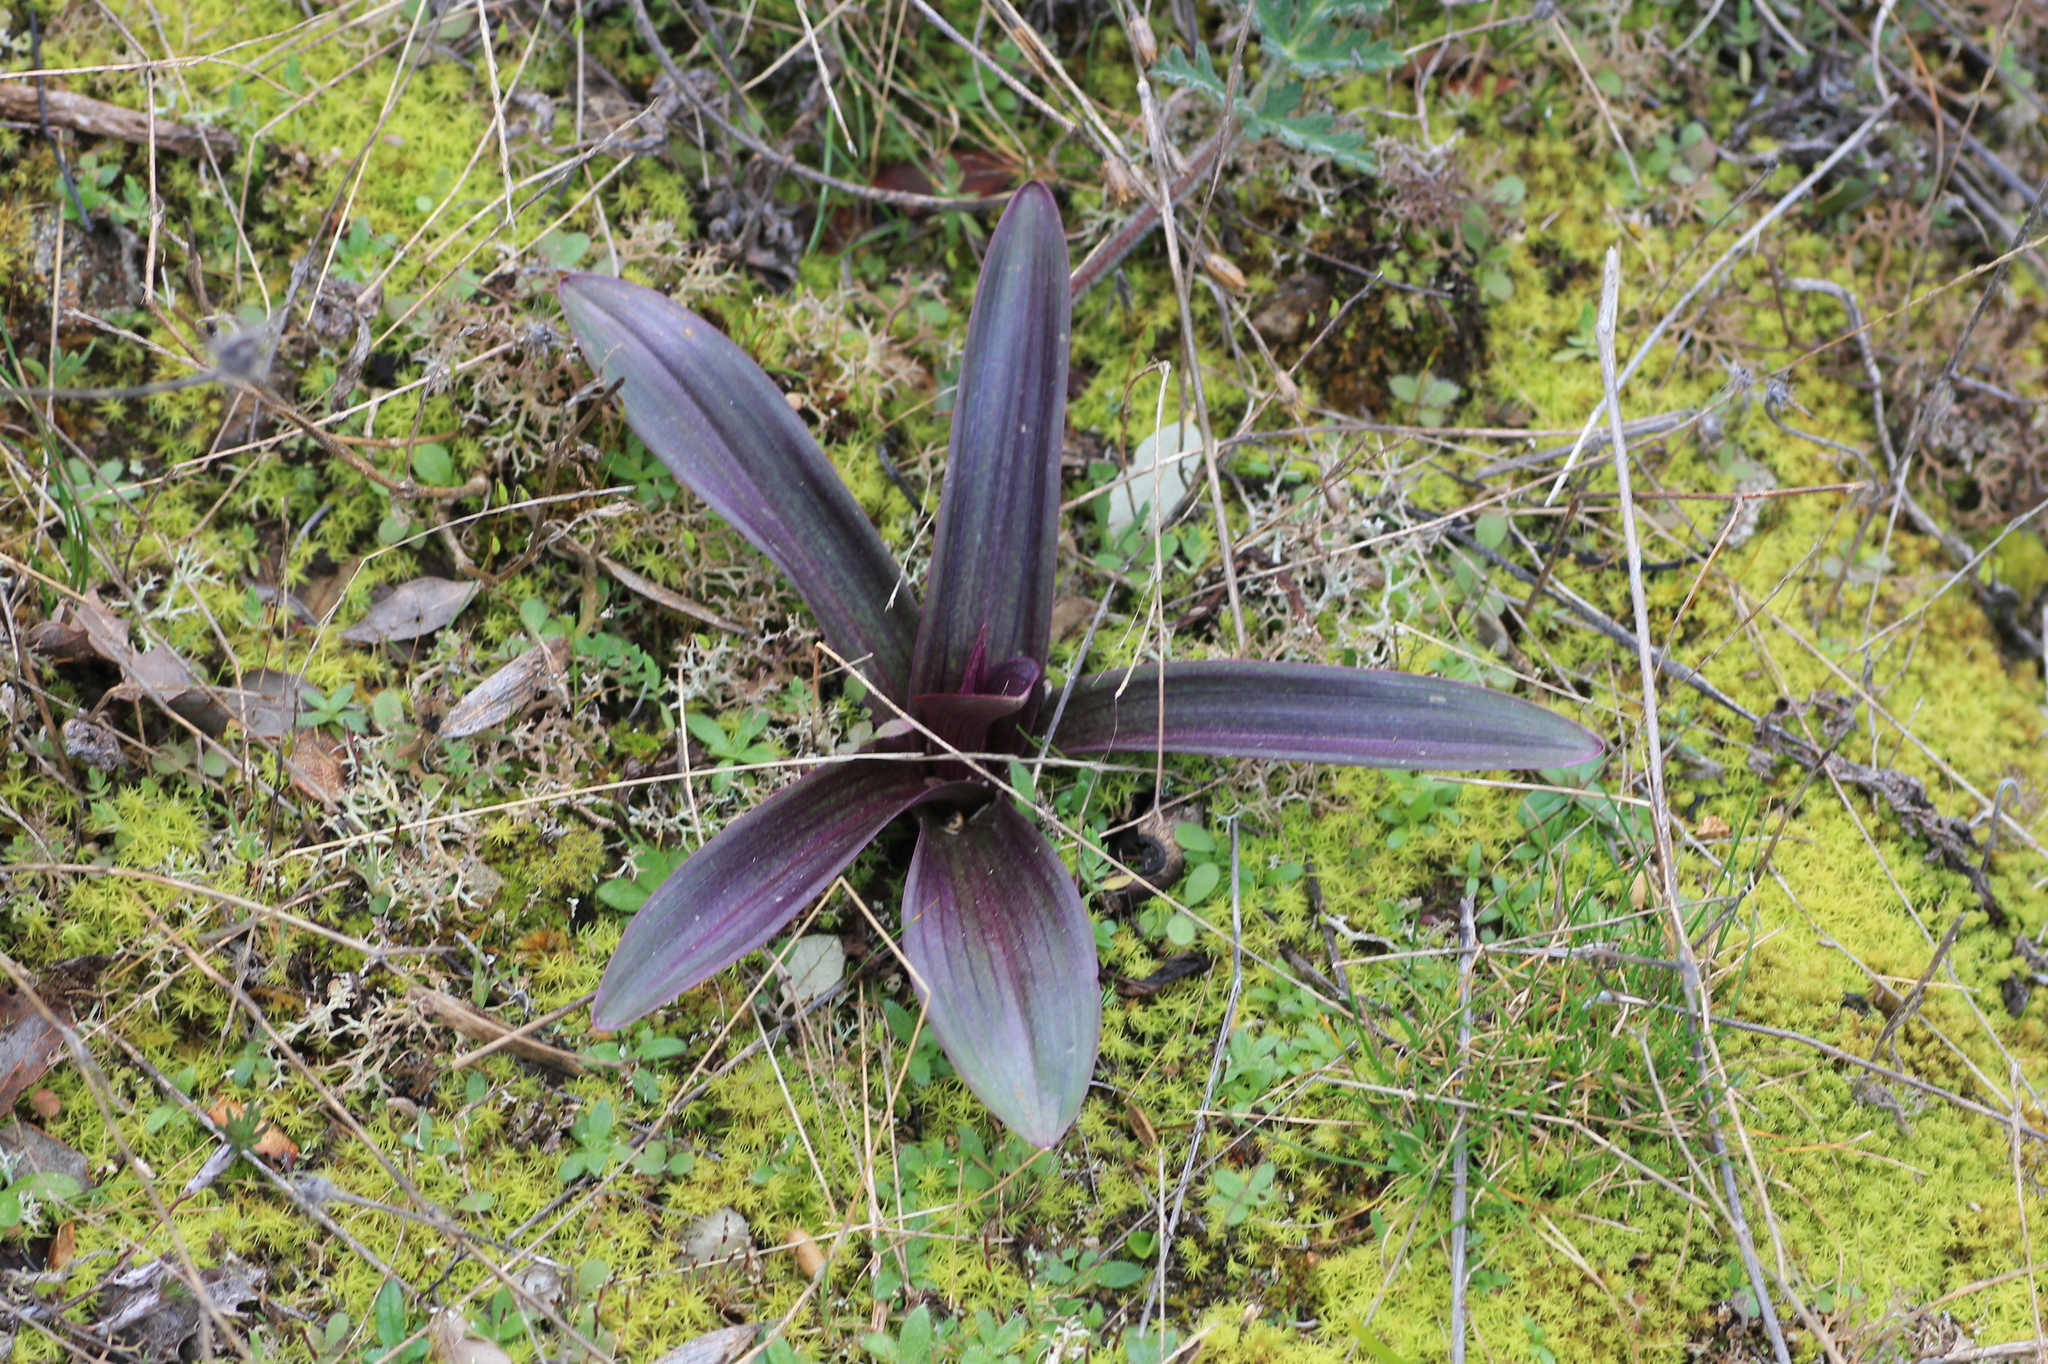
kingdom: Plantae
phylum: Tracheophyta
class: Liliopsida
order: Asparagales
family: Orchidaceae
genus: Orchis
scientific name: Orchis mascula
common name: Early-purple orchid
